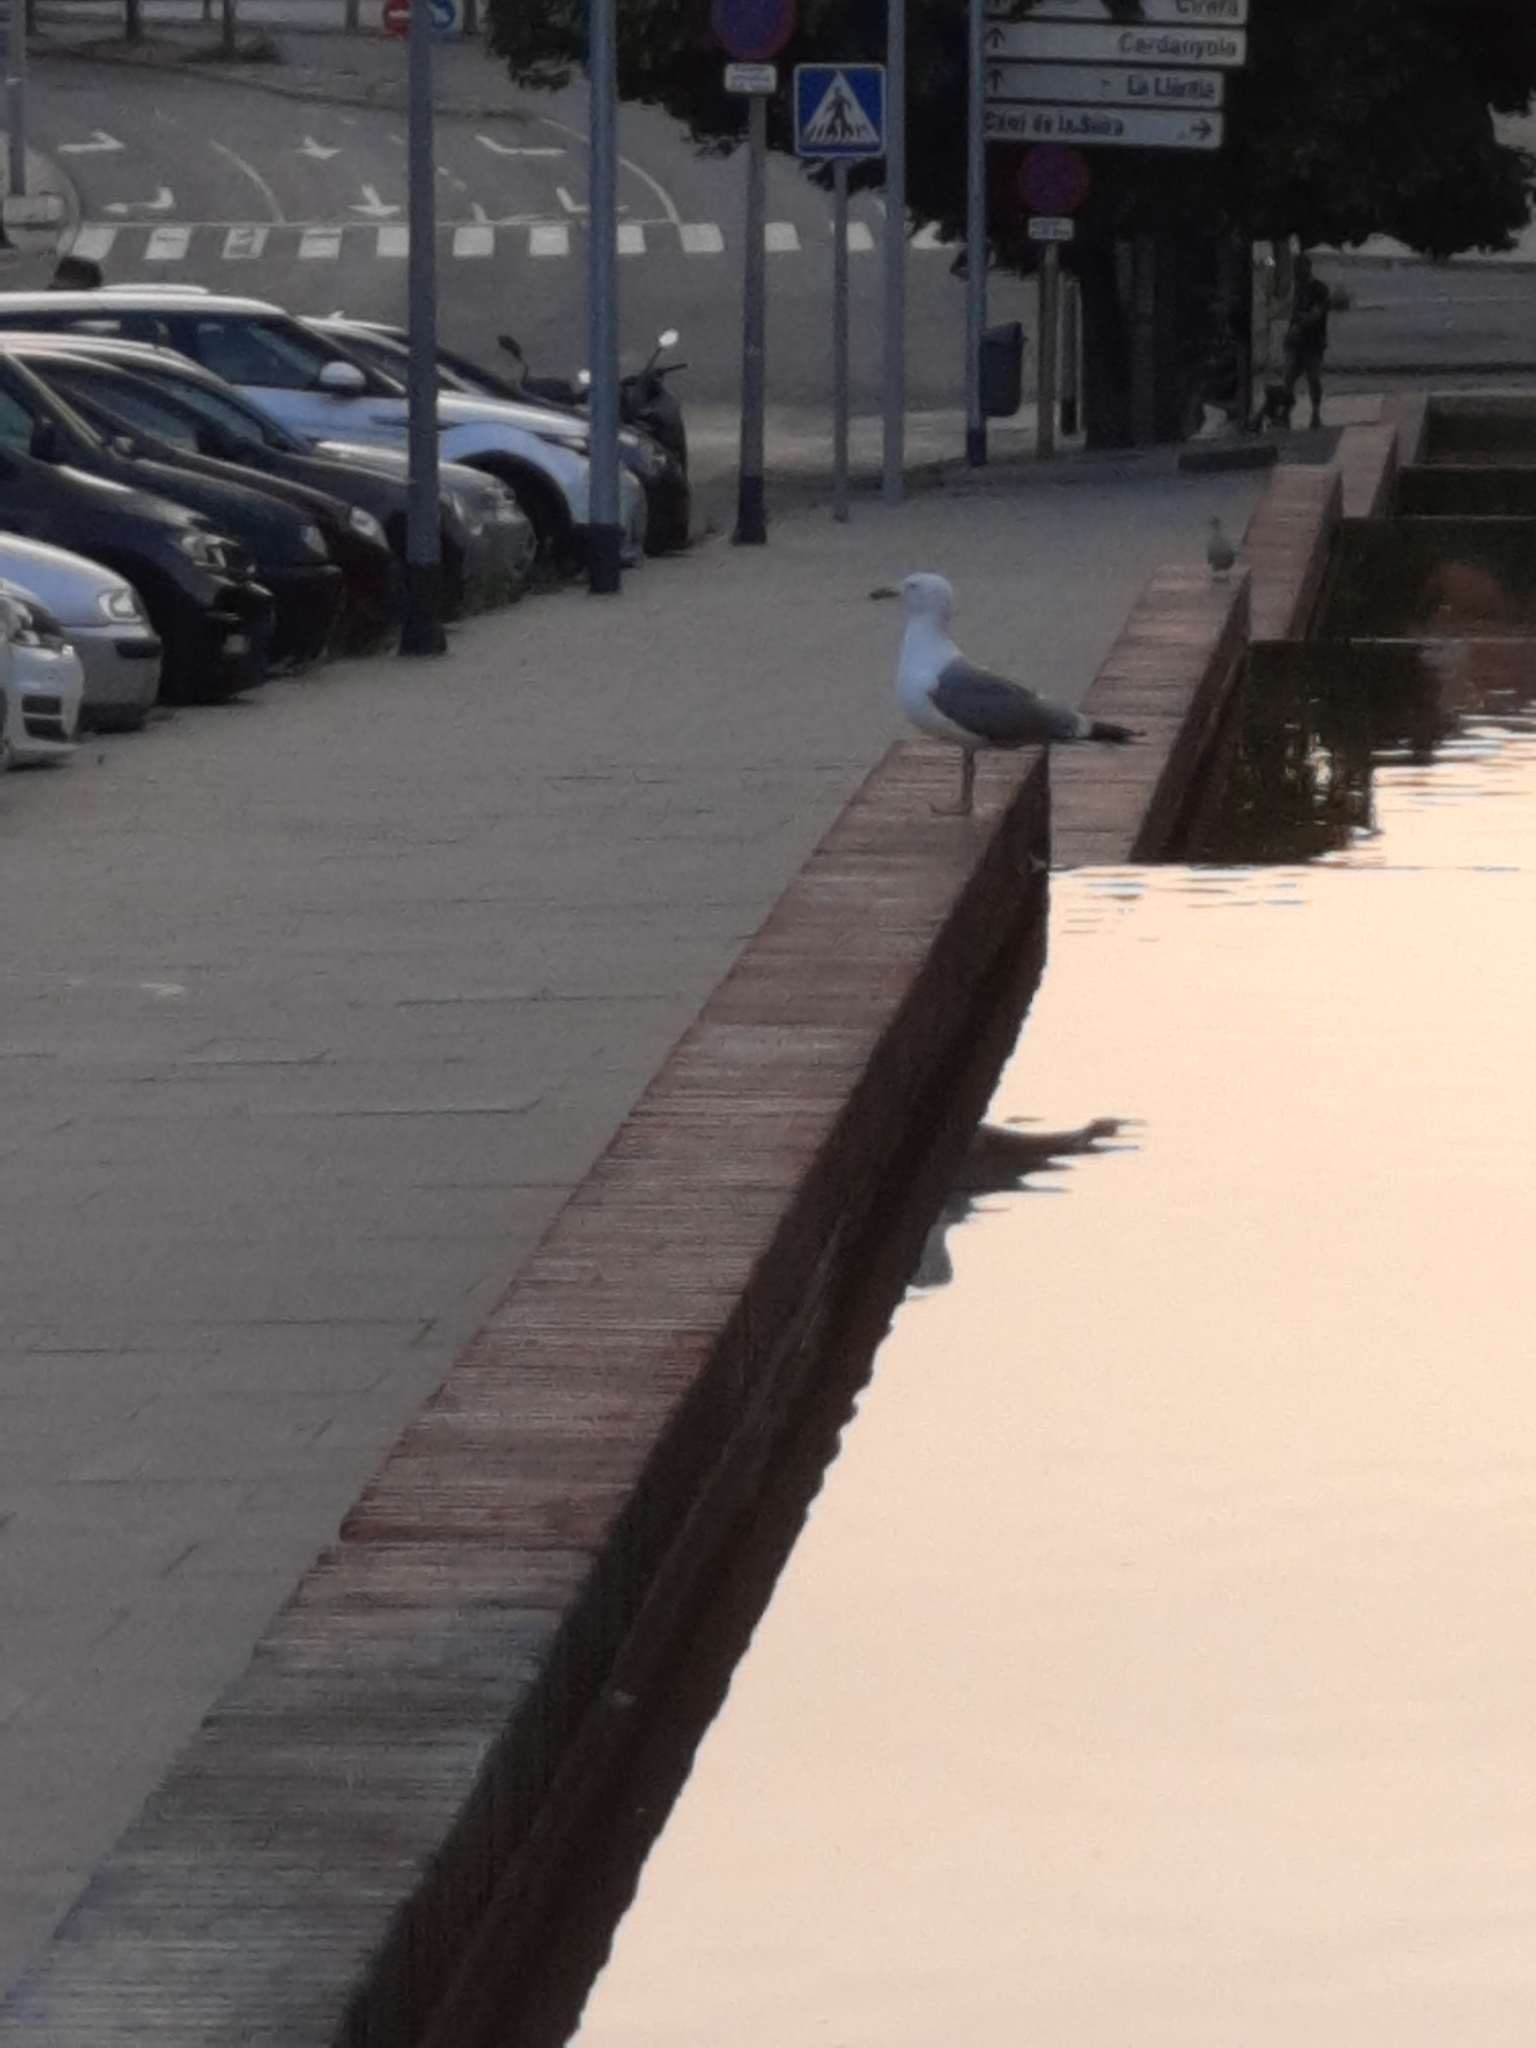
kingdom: Animalia
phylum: Chordata
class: Aves
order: Charadriiformes
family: Laridae
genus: Larus
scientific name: Larus michahellis
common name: Yellow-legged gull
